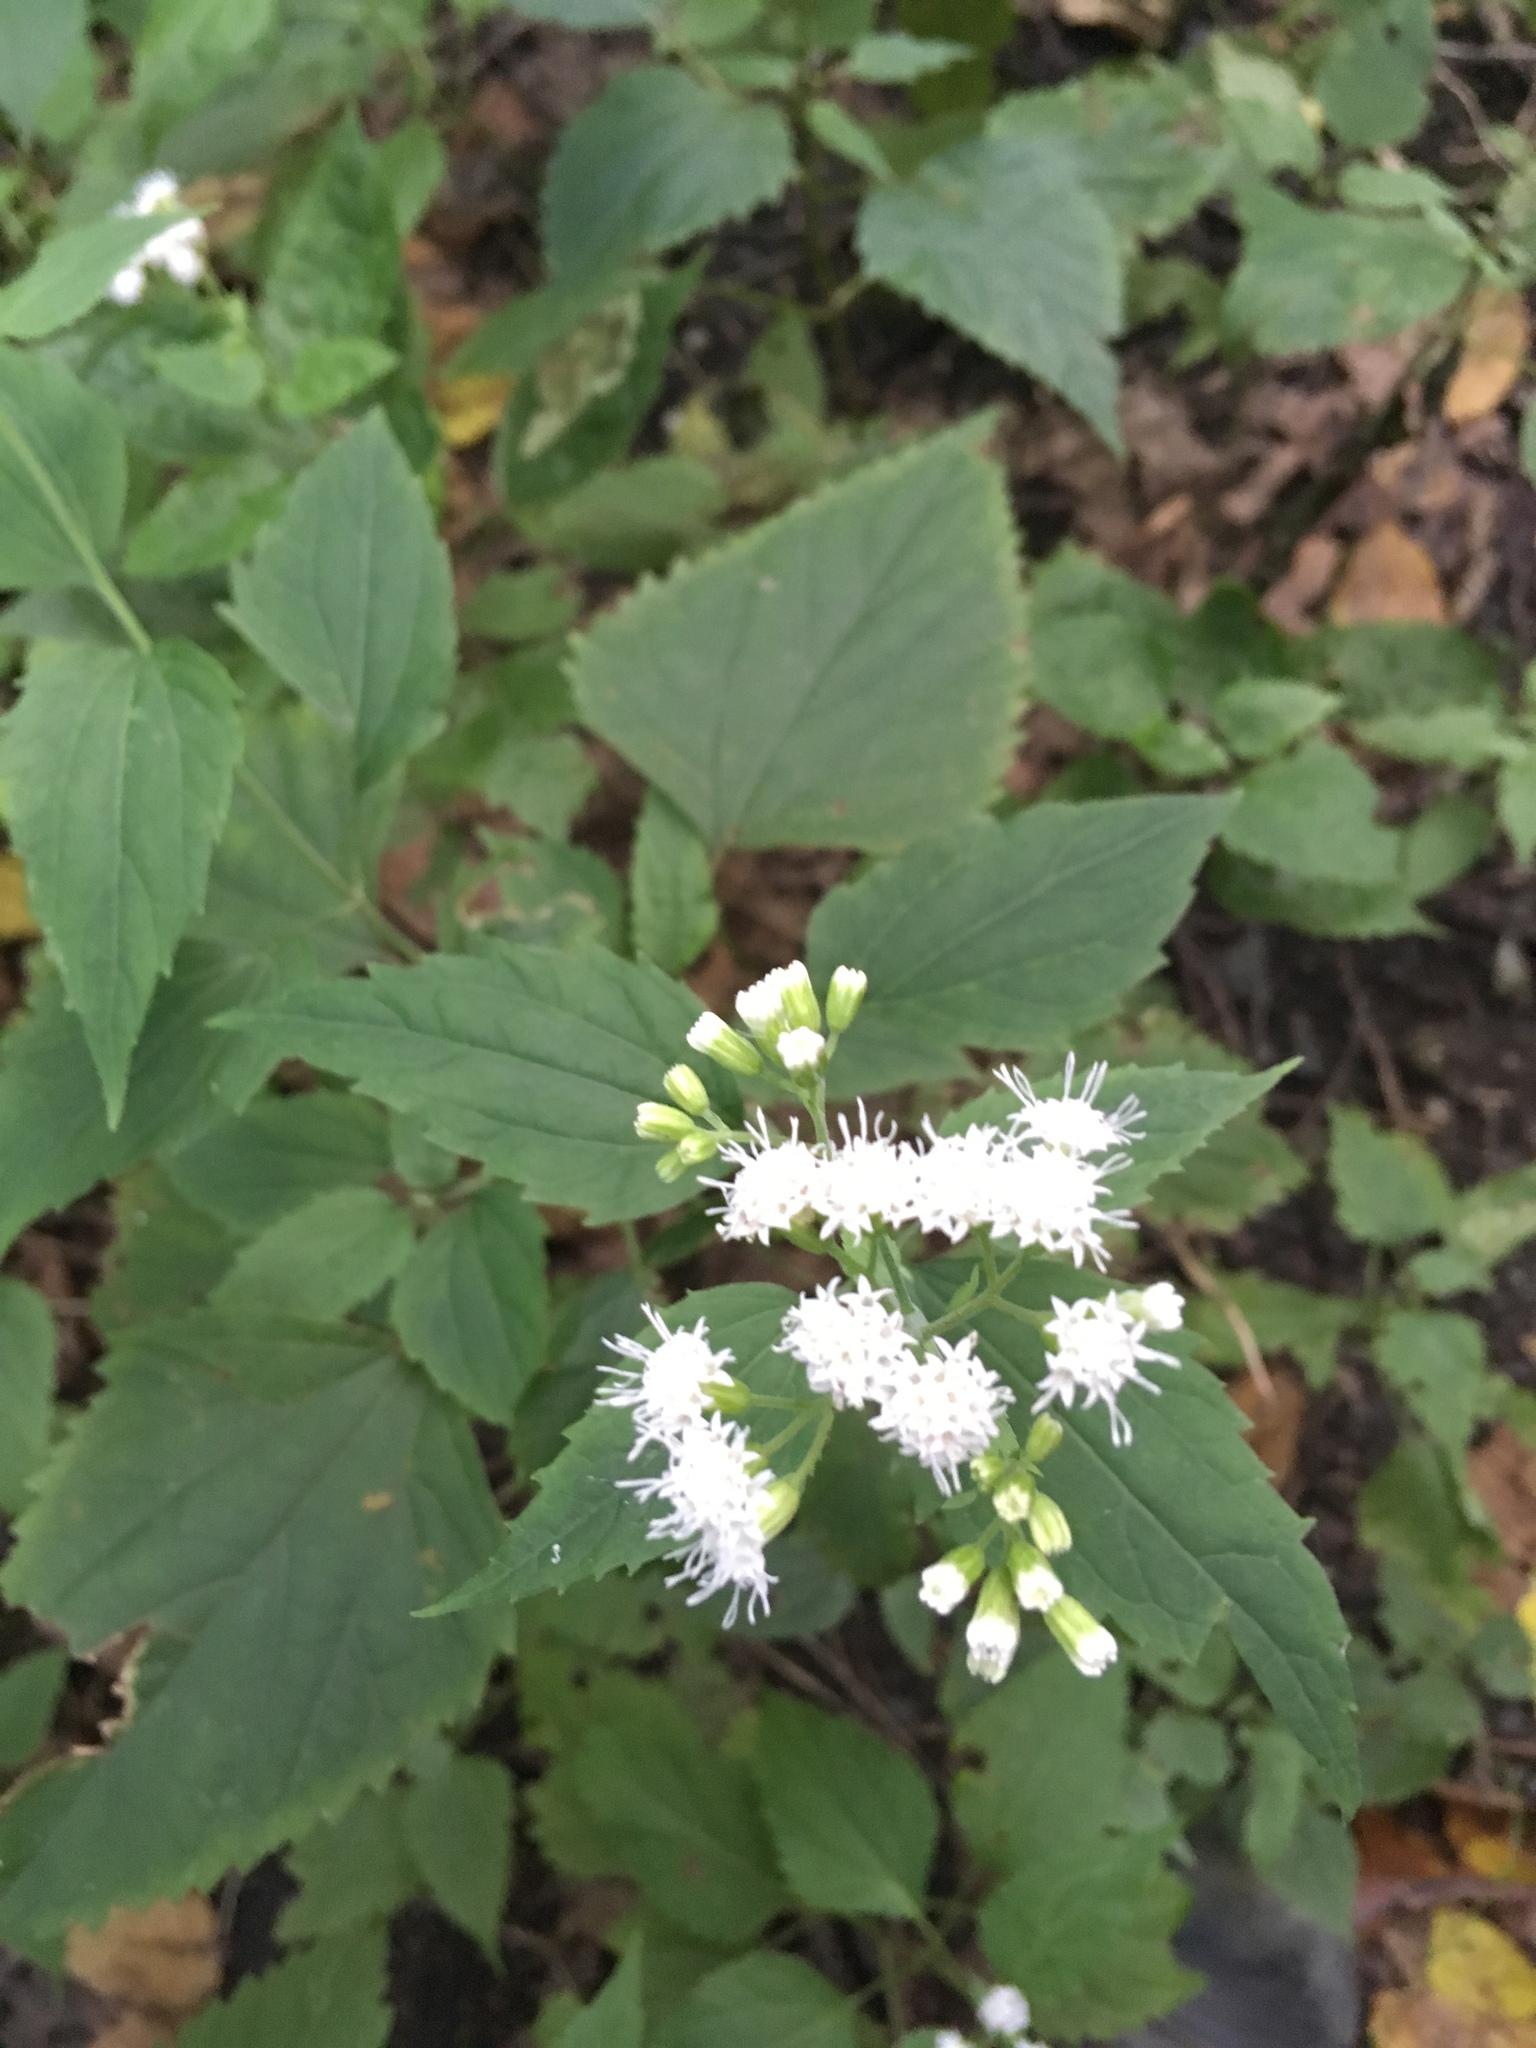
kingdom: Plantae
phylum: Tracheophyta
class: Magnoliopsida
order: Asterales
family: Asteraceae
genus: Ageratina
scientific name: Ageratina altissima
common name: White snakeroot
